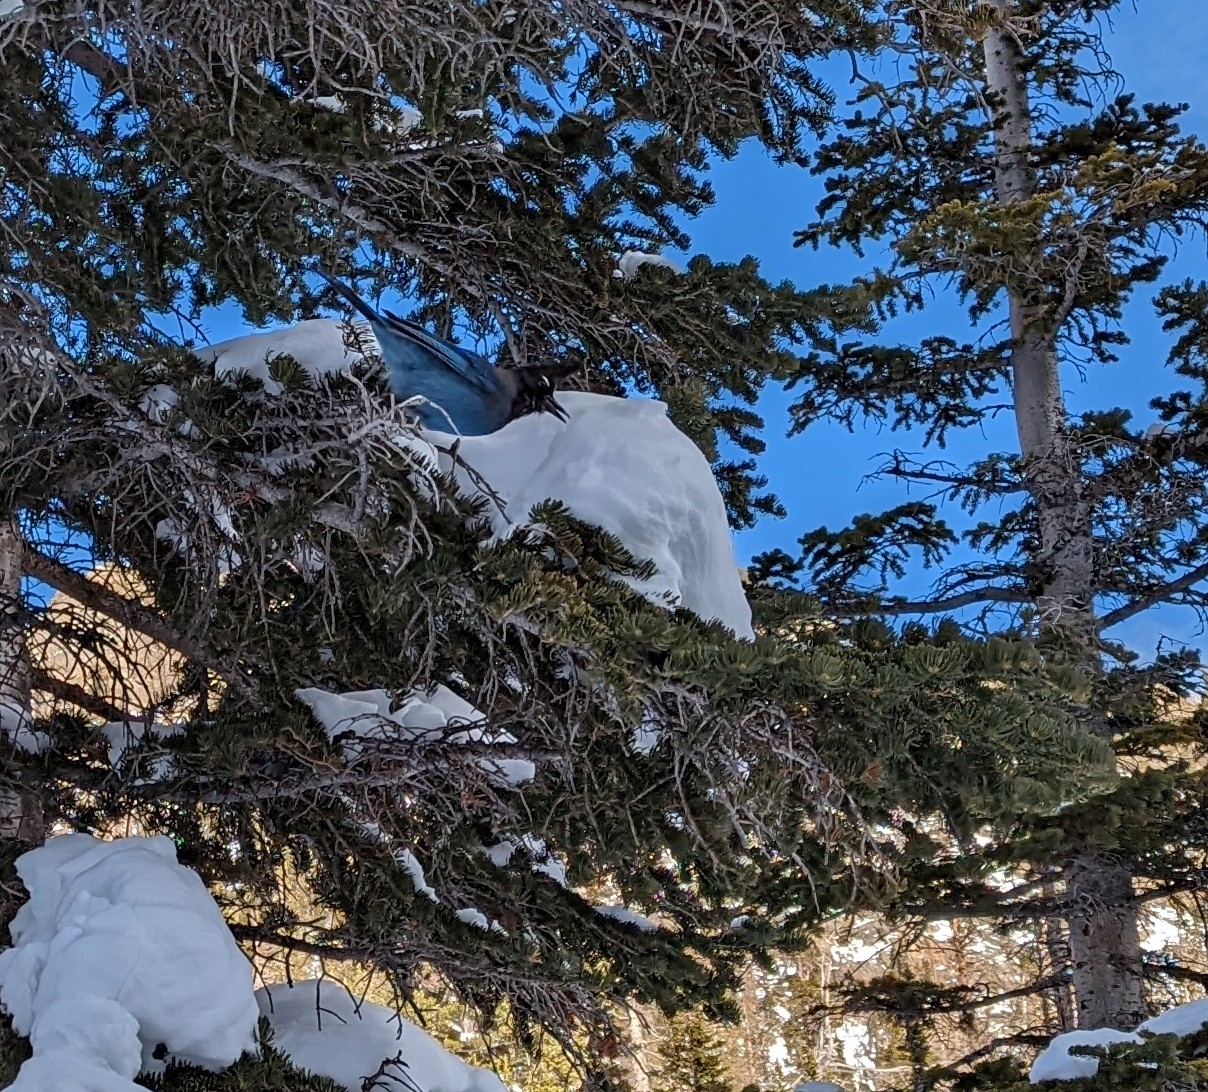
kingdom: Animalia
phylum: Chordata
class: Aves
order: Passeriformes
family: Corvidae
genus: Cyanocitta
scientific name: Cyanocitta stelleri
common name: Steller's jay
